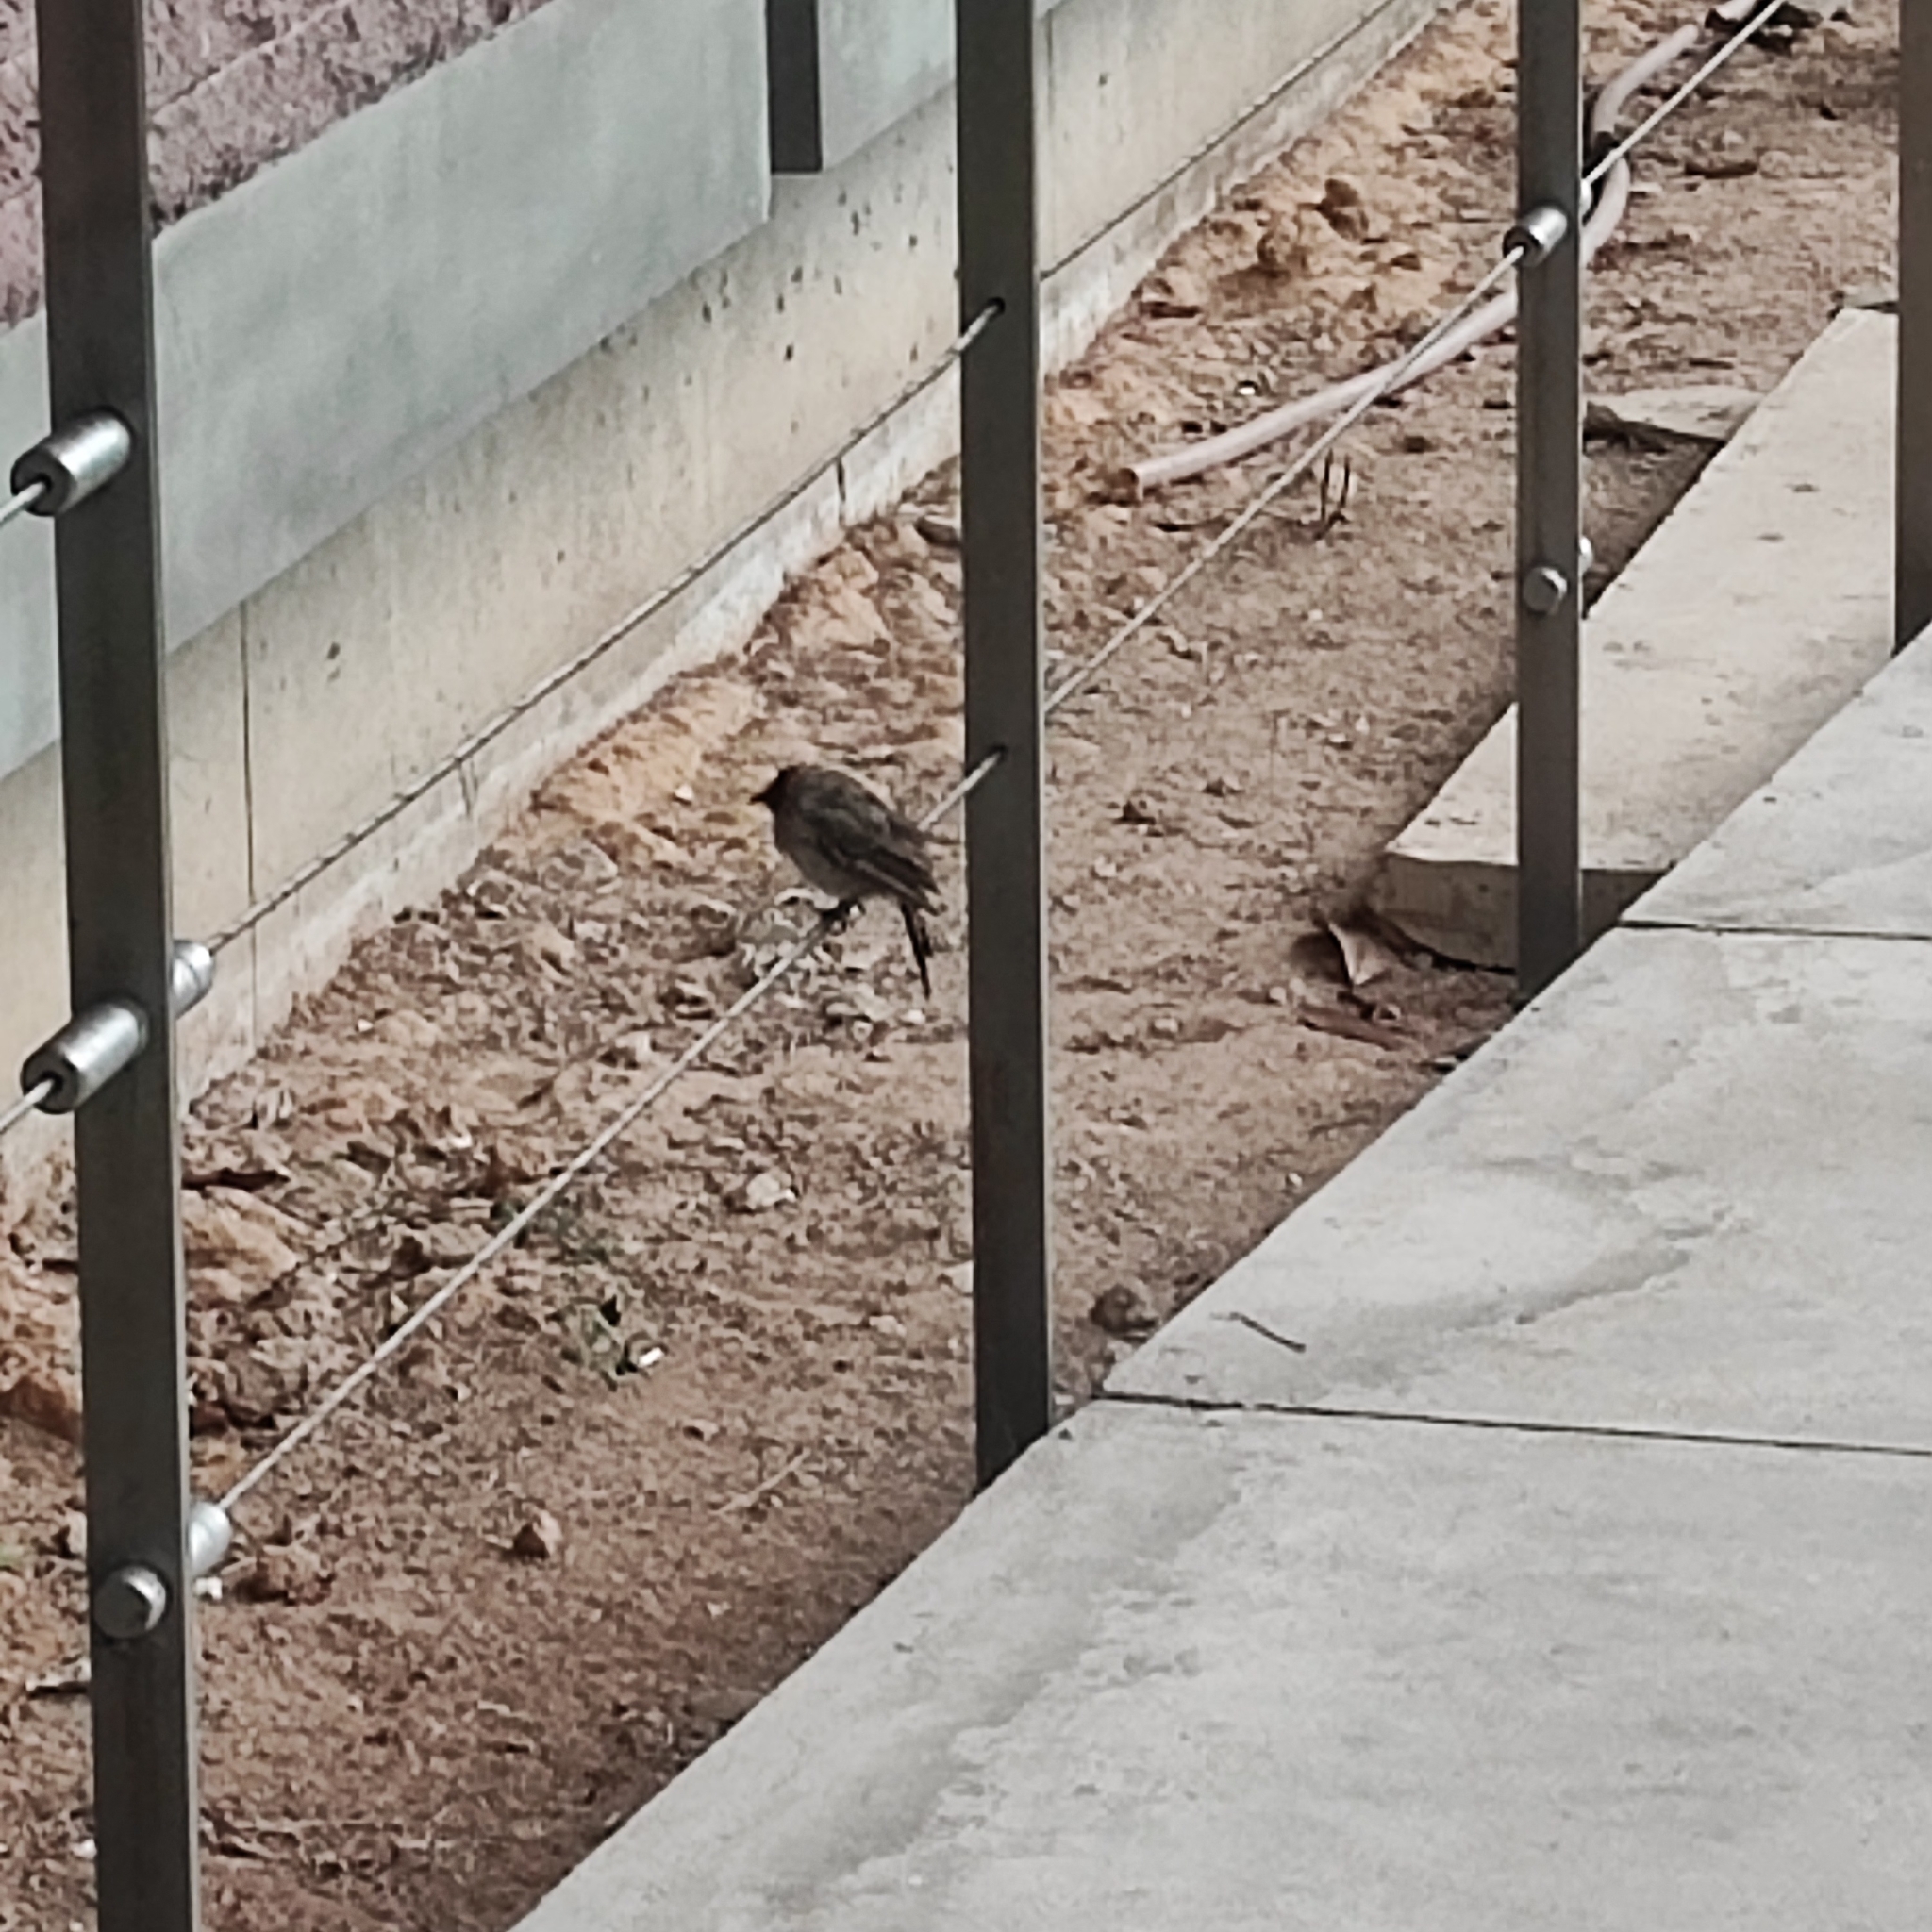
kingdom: Animalia
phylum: Chordata
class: Aves
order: Passeriformes
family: Pycnonotidae
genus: Pycnonotus
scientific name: Pycnonotus aurigaster
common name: Sooty-headed bulbul
